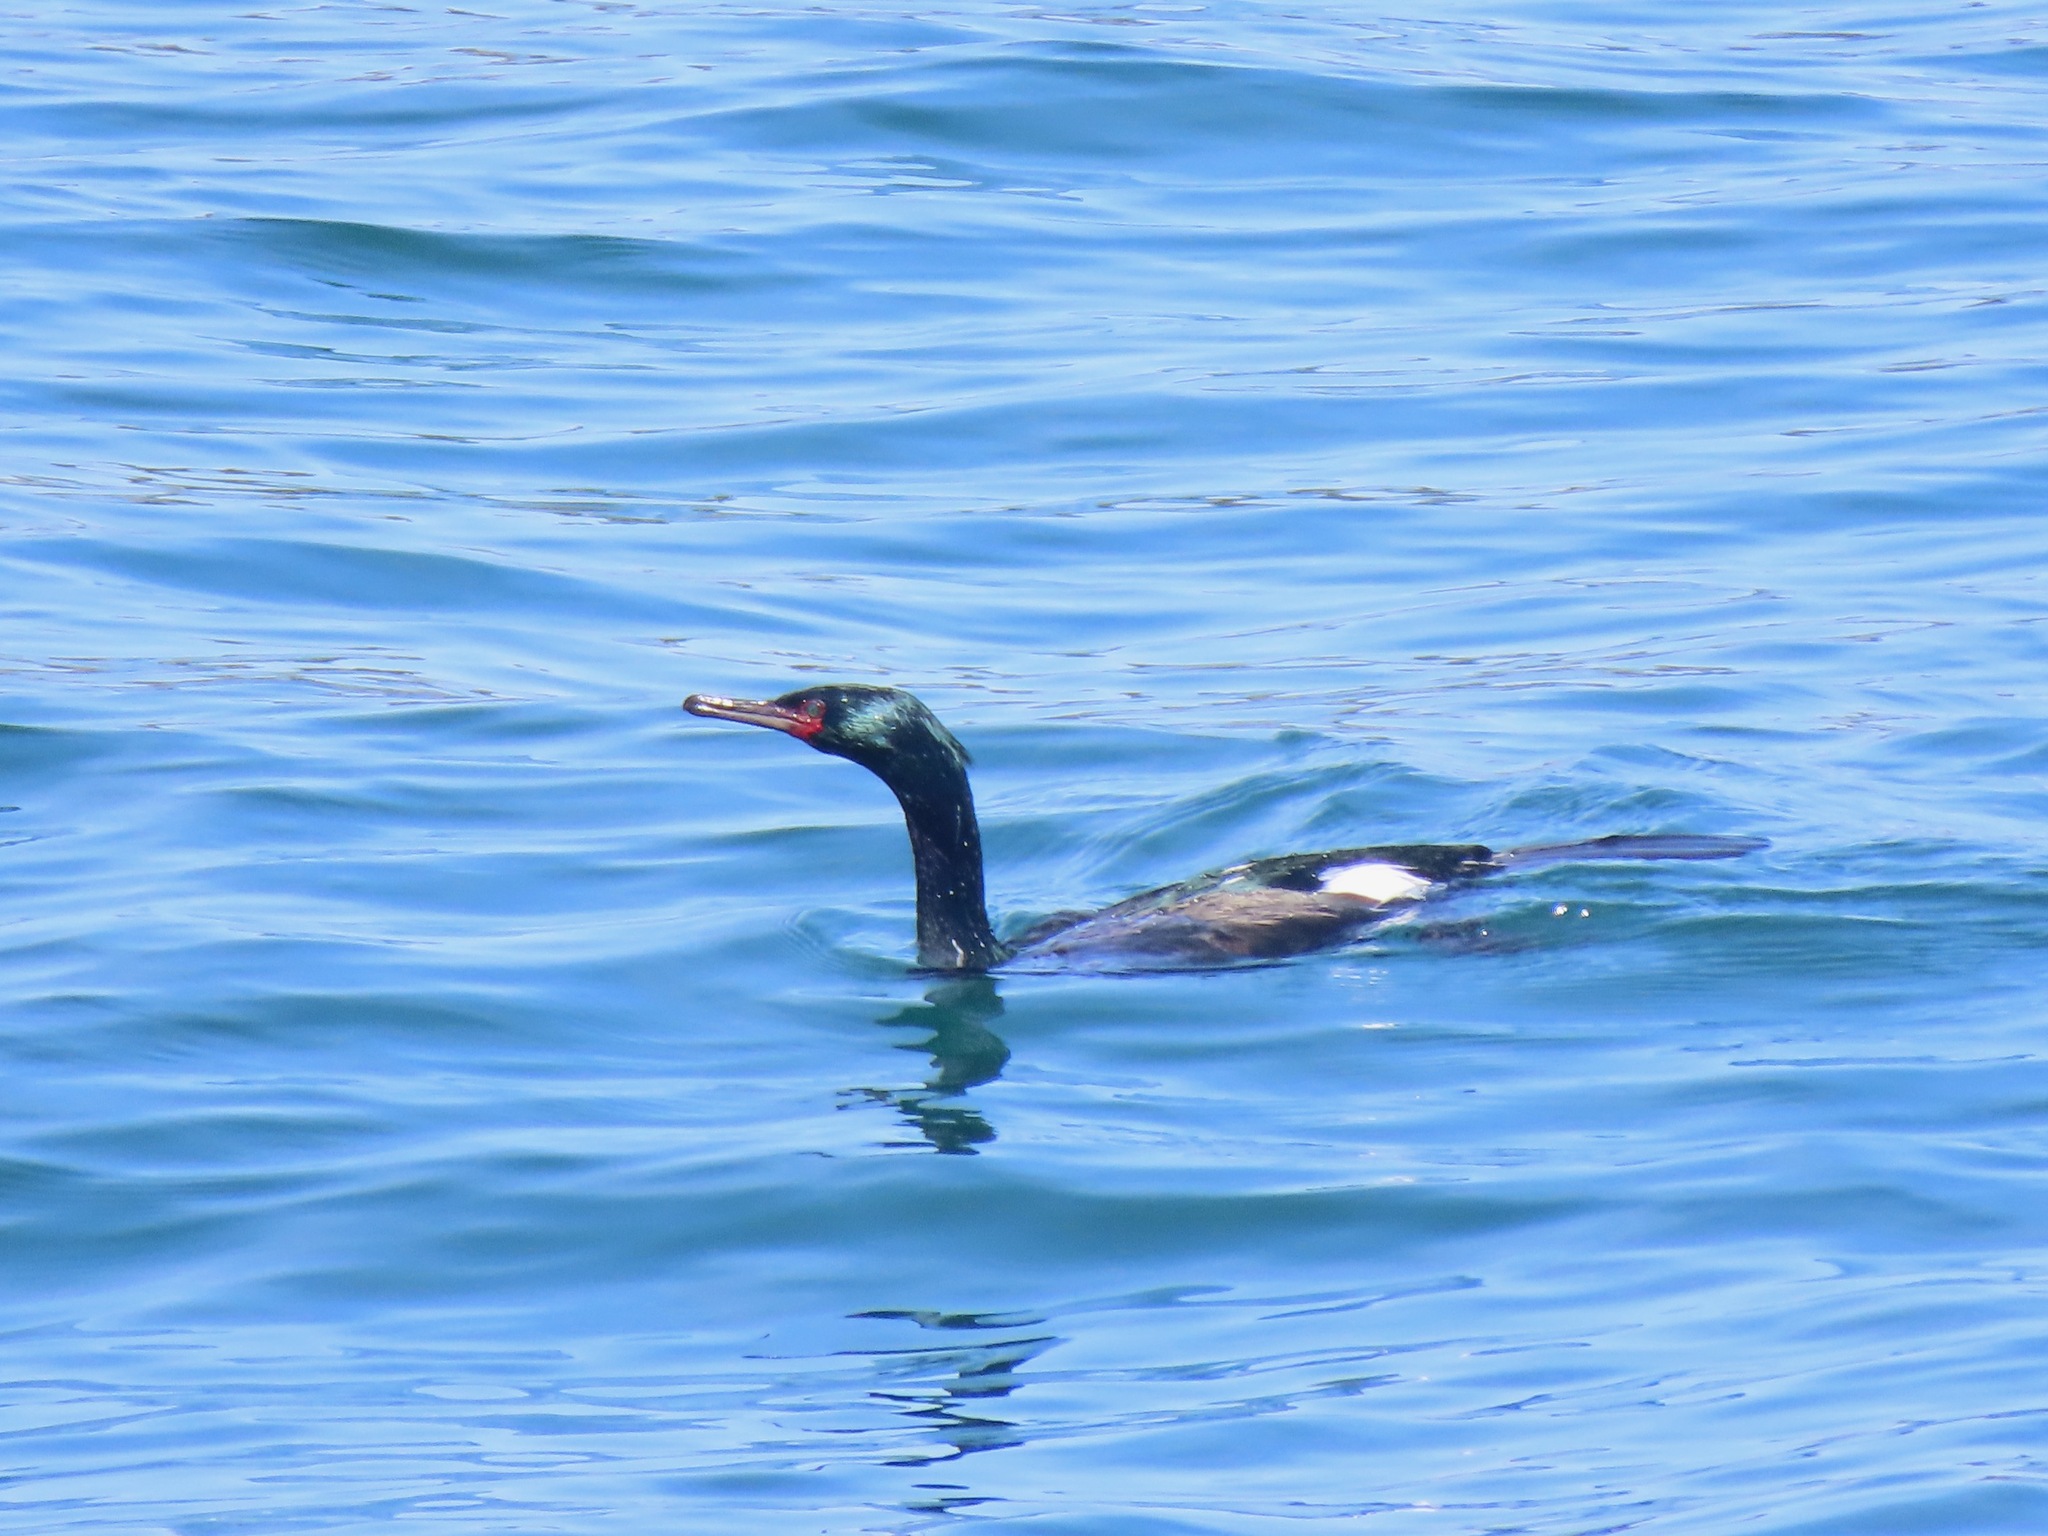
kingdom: Animalia
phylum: Chordata
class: Aves
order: Suliformes
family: Phalacrocoracidae
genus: Phalacrocorax
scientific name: Phalacrocorax pelagicus
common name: Pelagic cormorant
